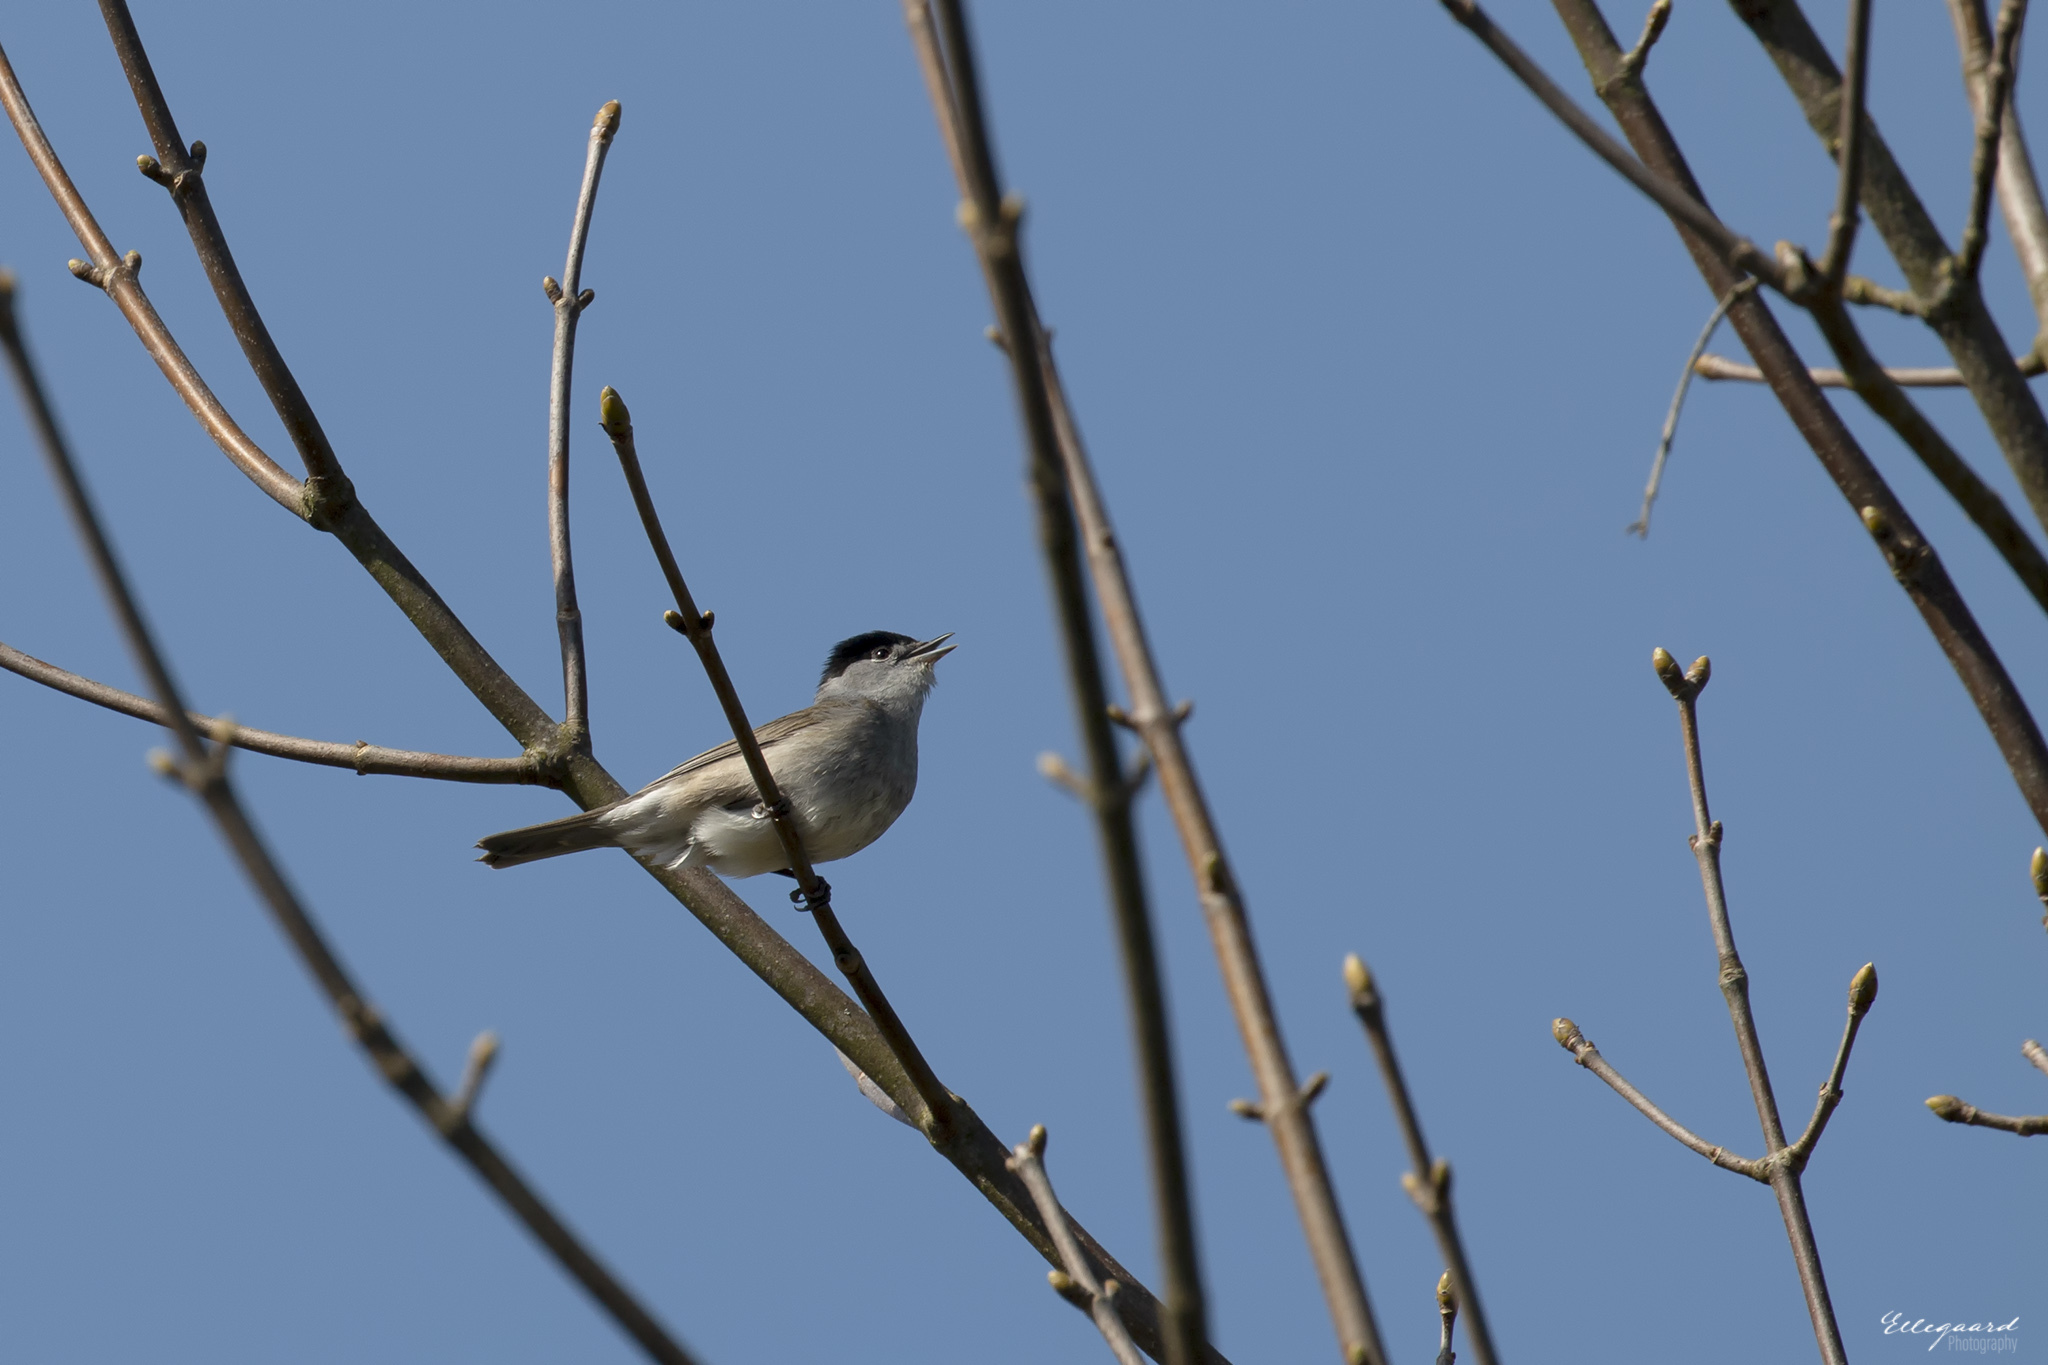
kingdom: Animalia
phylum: Chordata
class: Aves
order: Passeriformes
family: Sylviidae
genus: Sylvia
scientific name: Sylvia atricapilla
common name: Eurasian blackcap
